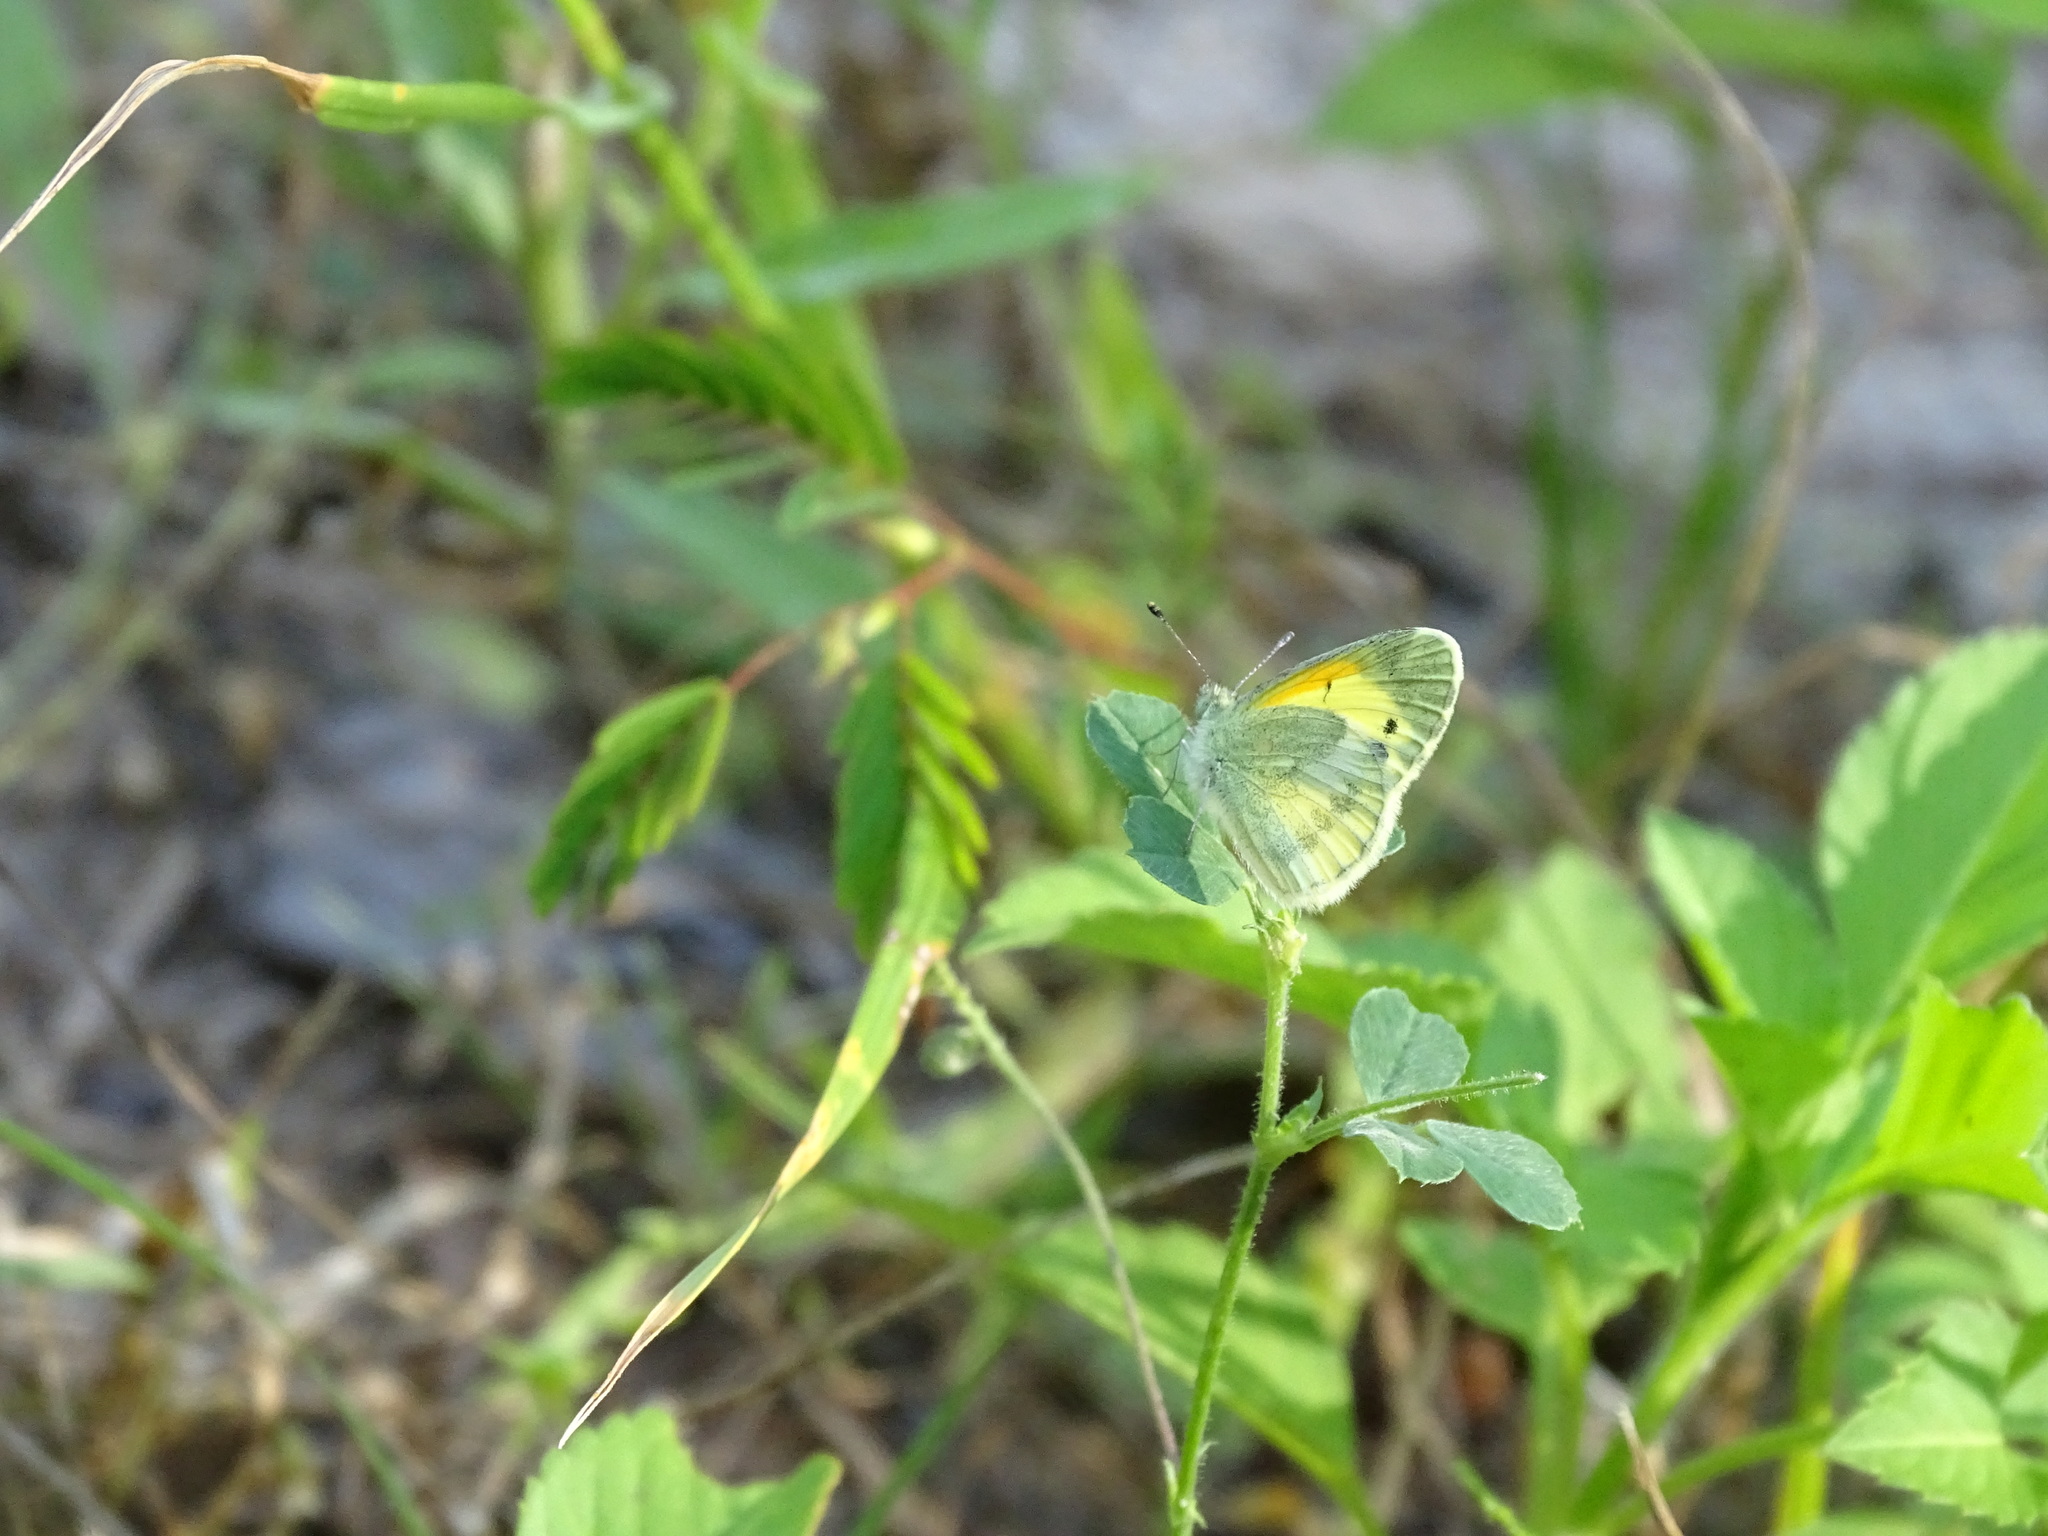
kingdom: Animalia
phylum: Arthropoda
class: Insecta
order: Lepidoptera
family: Pieridae
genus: Nathalis
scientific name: Nathalis iole
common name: Dainty sulphur
